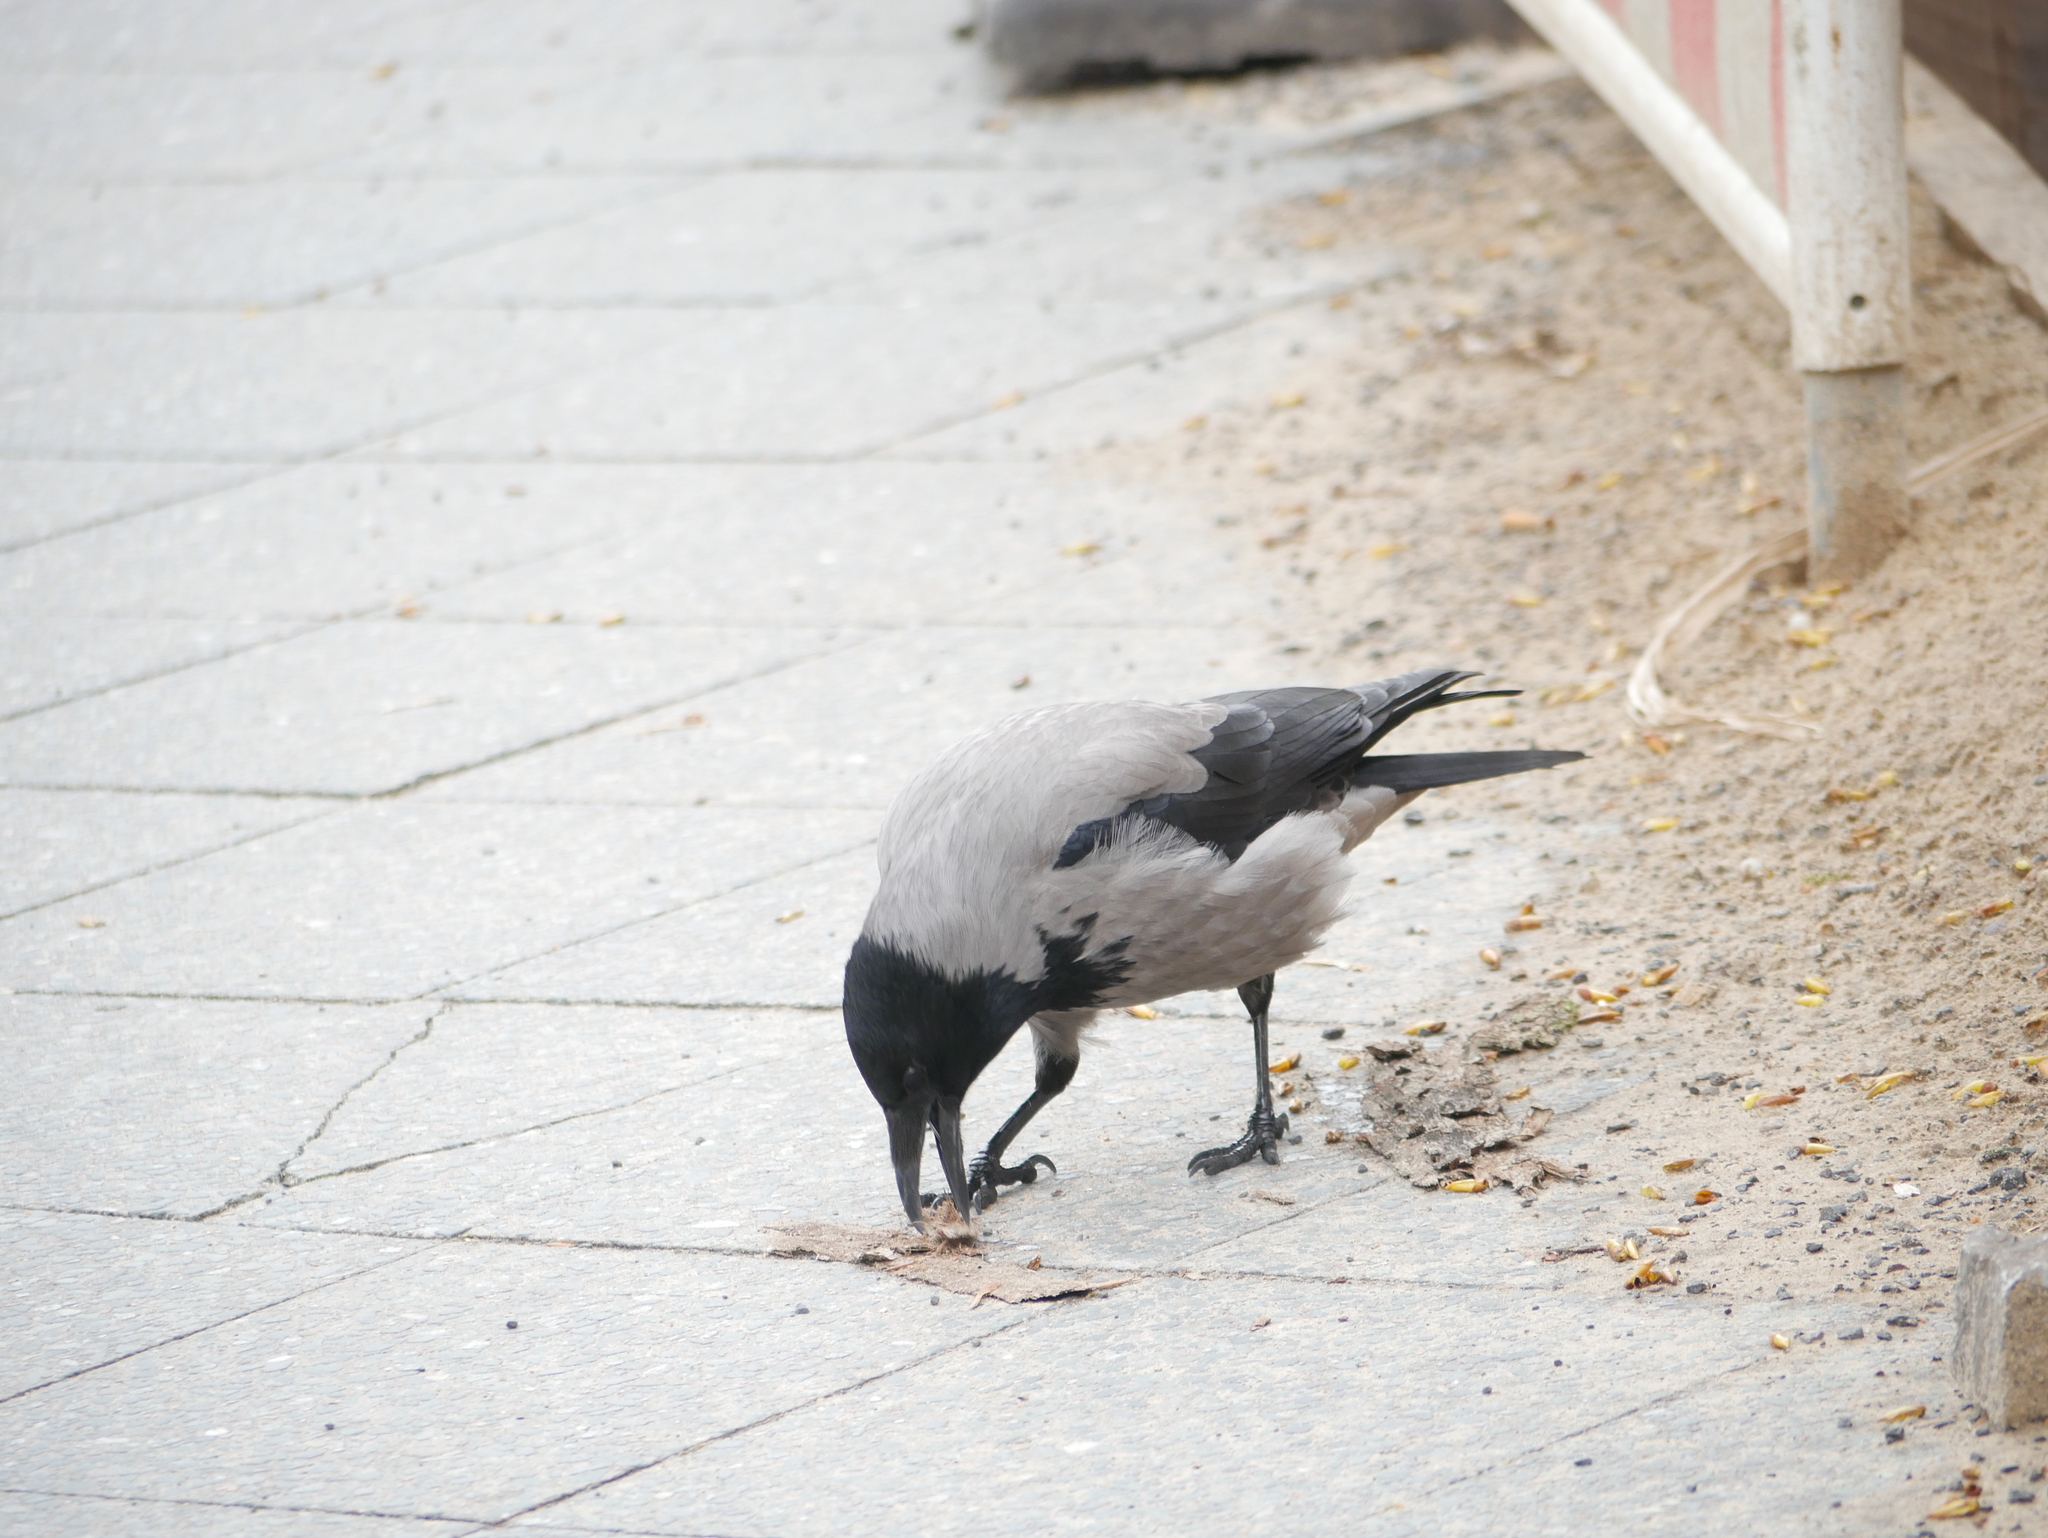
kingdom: Animalia
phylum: Chordata
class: Aves
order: Passeriformes
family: Corvidae
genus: Corvus
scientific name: Corvus cornix
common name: Hooded crow
